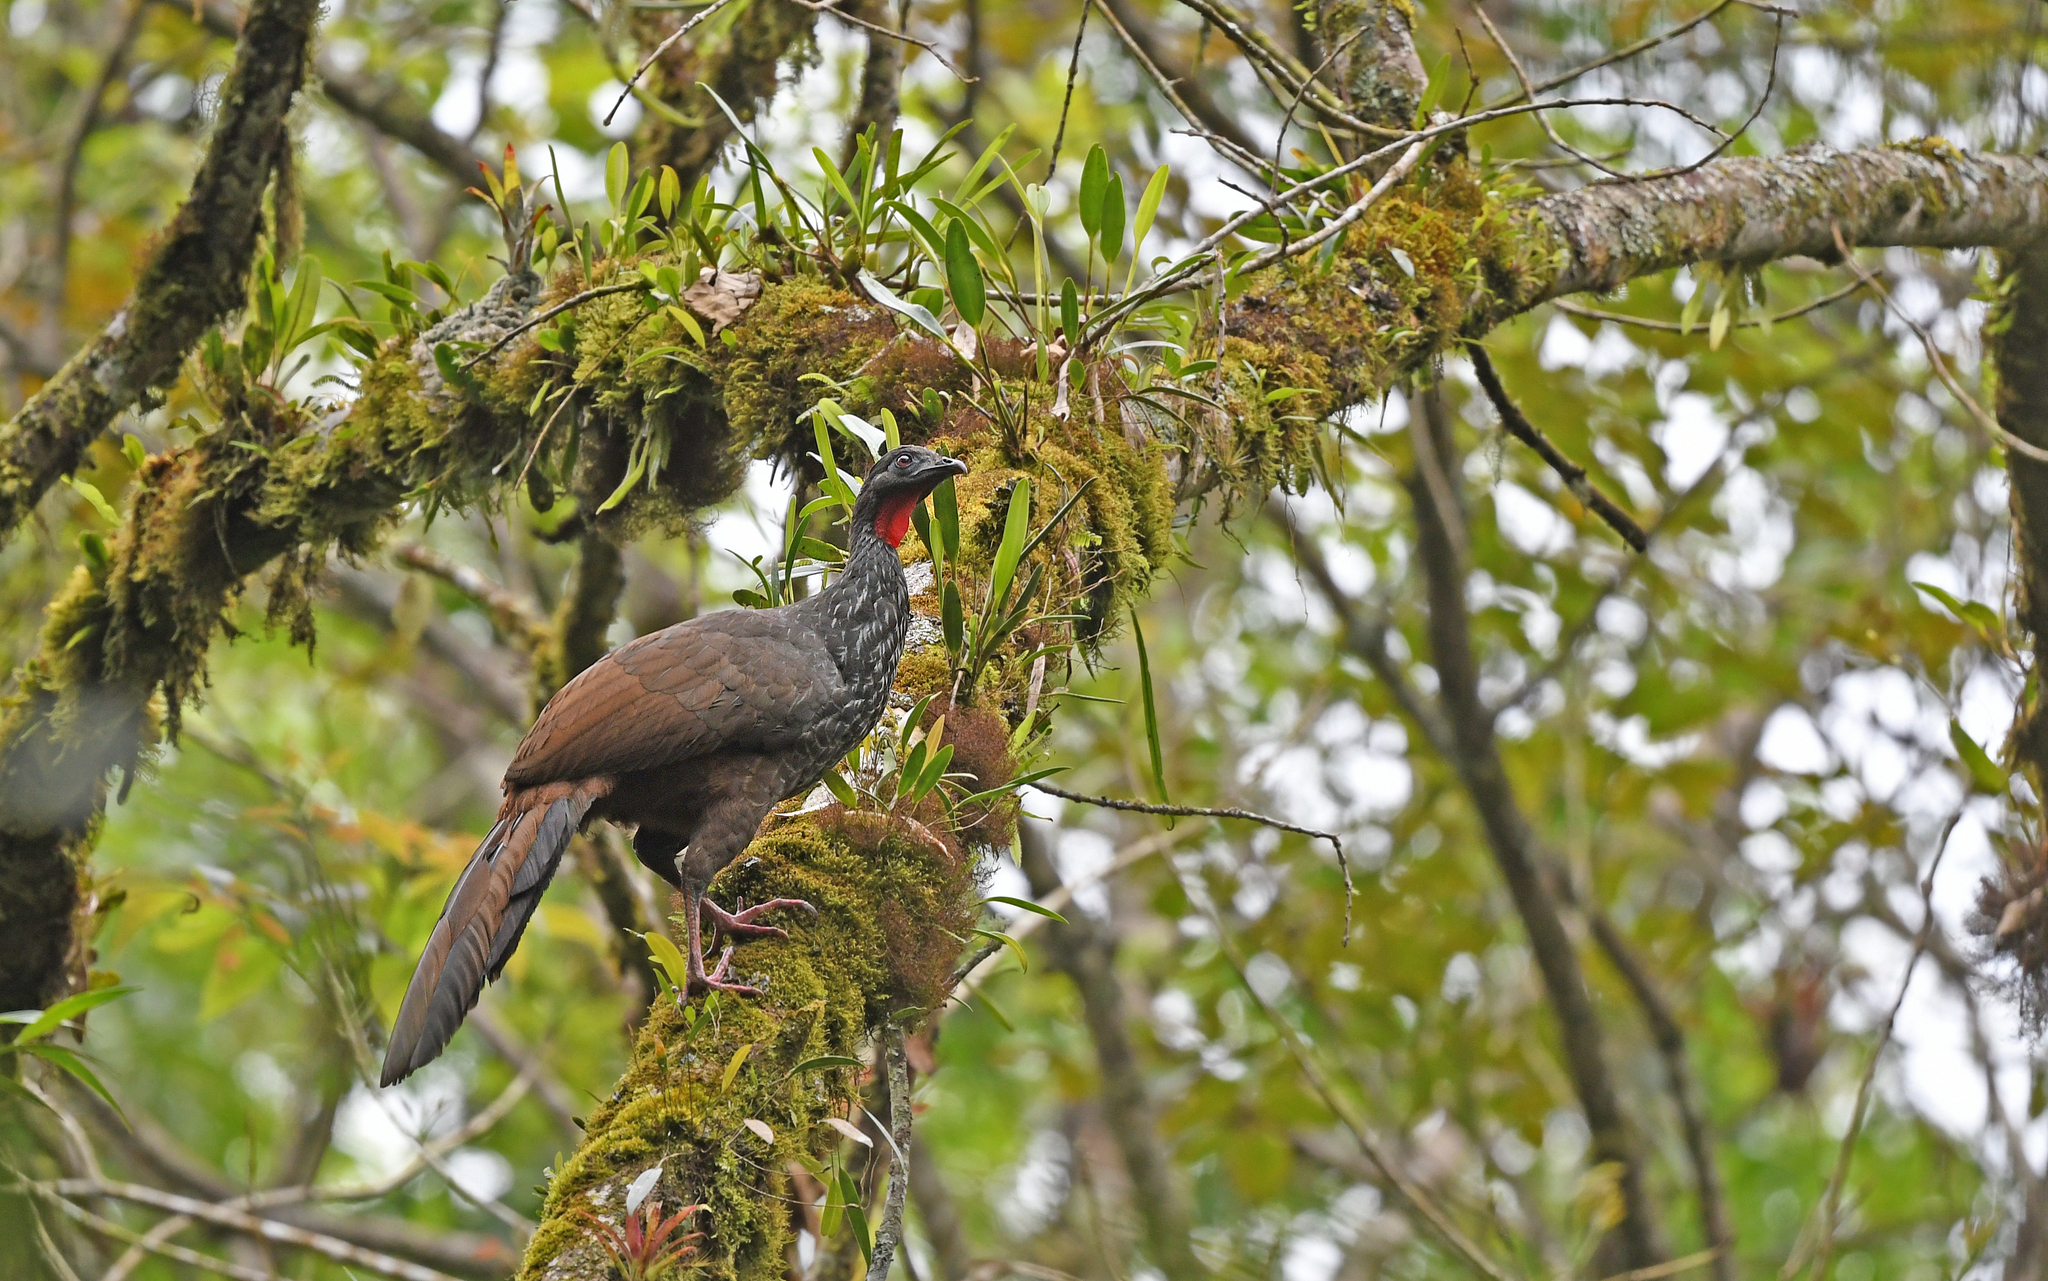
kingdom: Animalia
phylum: Chordata
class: Aves
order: Galliformes
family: Cracidae
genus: Penelope
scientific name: Penelope perspicax
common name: Cauca guan
